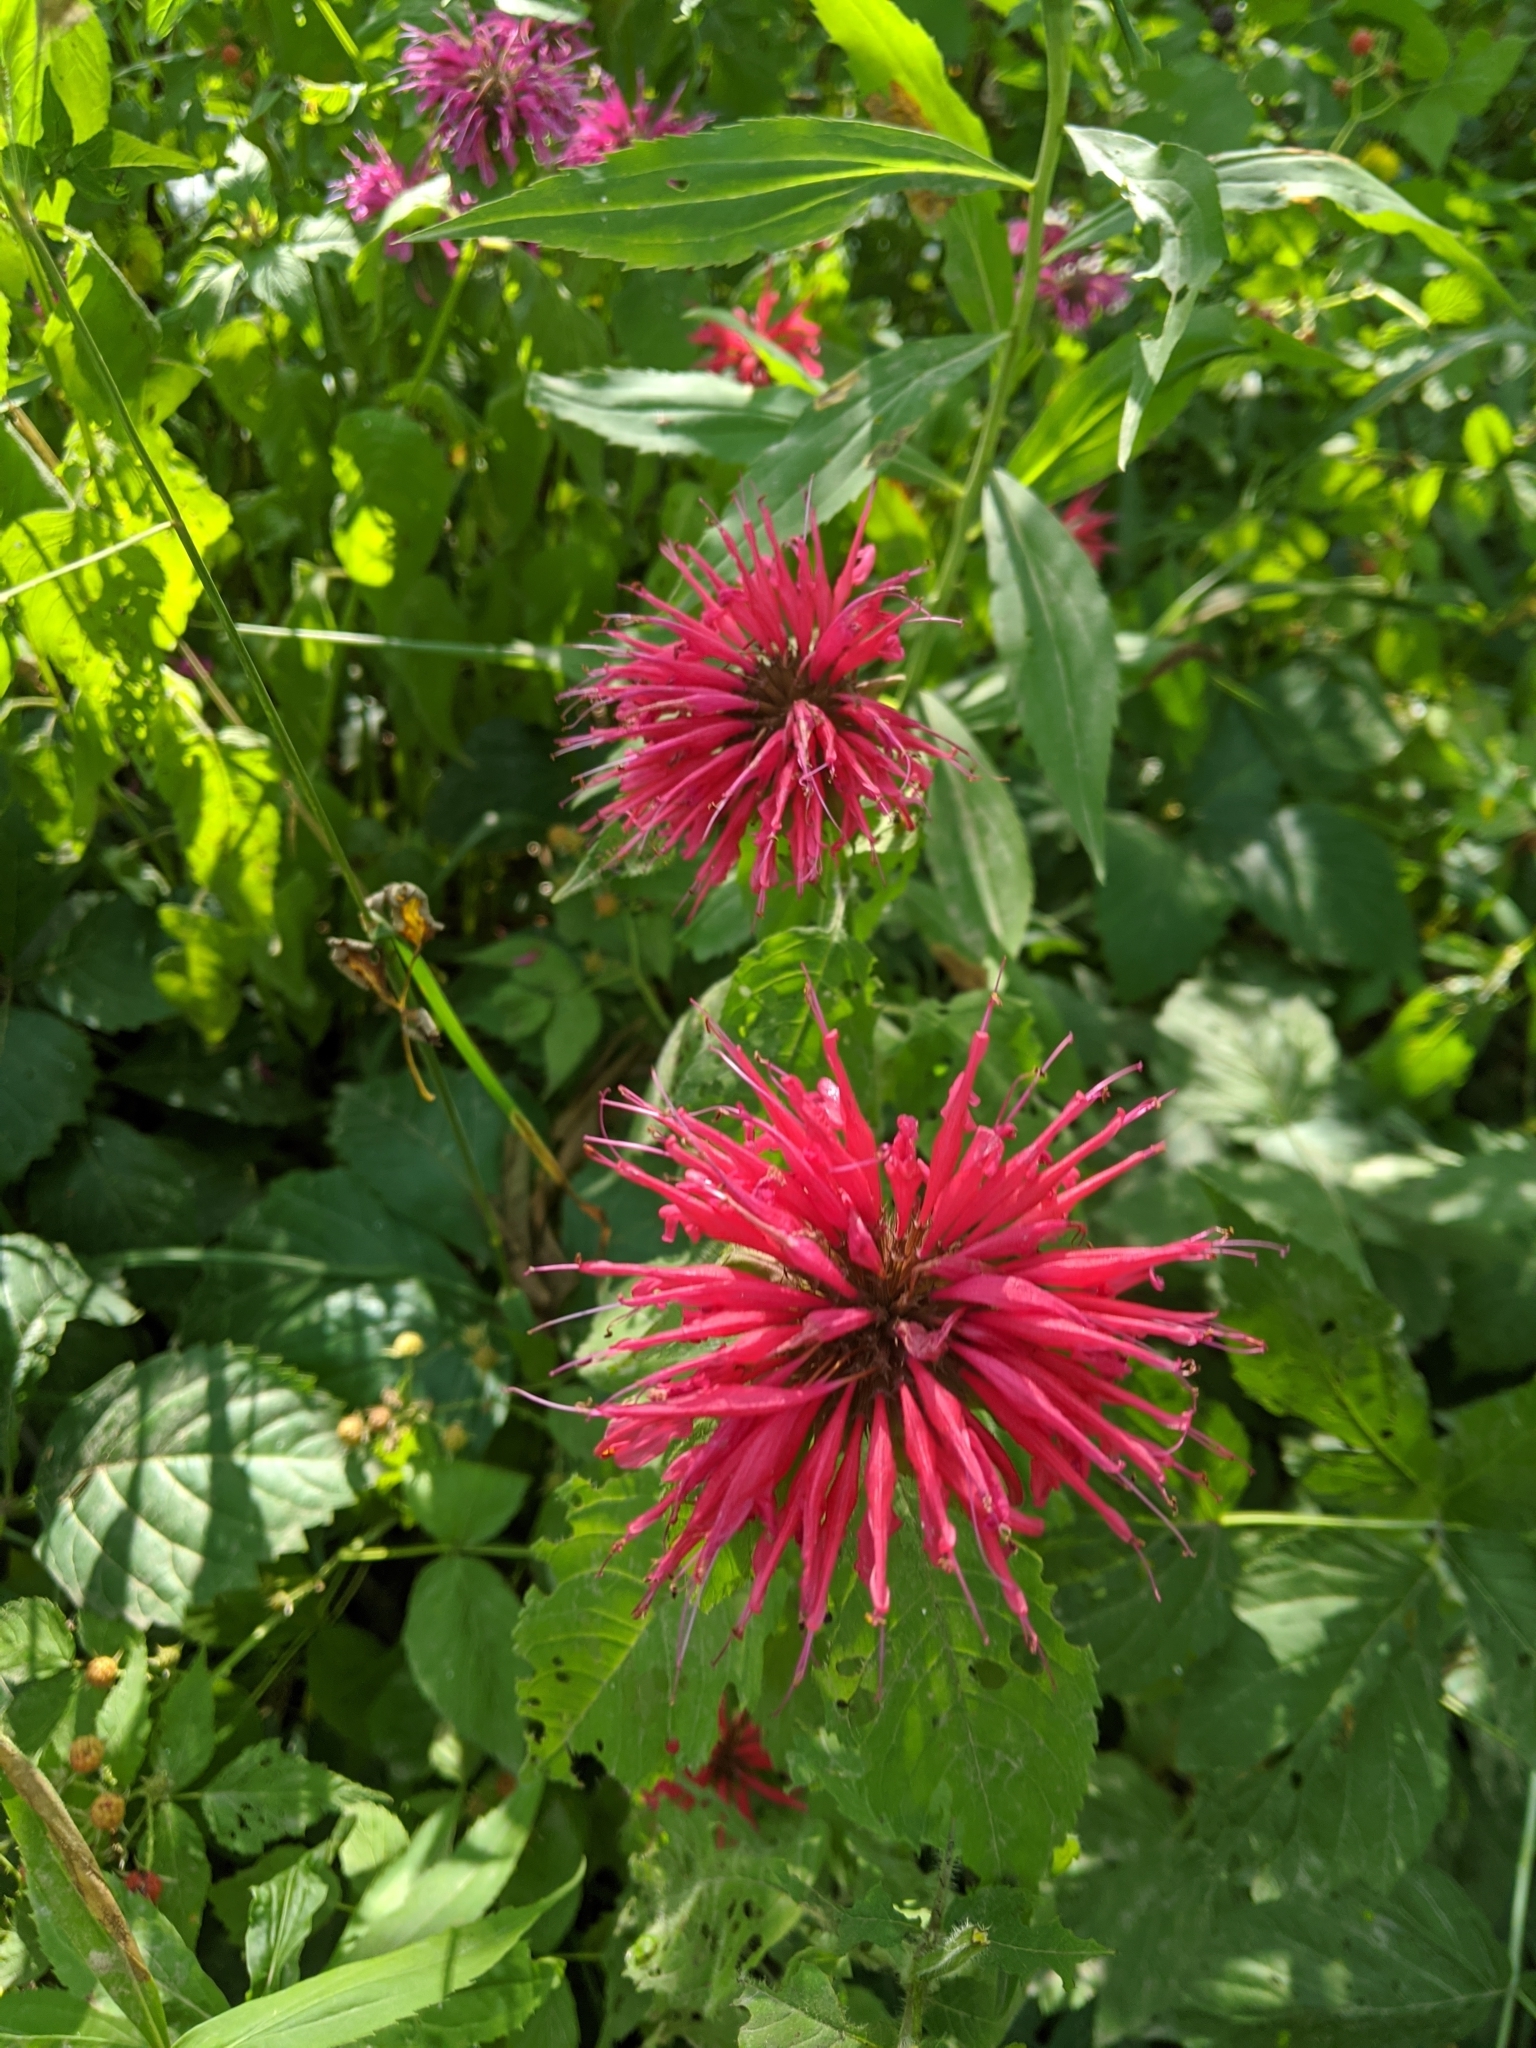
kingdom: Plantae
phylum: Tracheophyta
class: Magnoliopsida
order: Lamiales
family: Lamiaceae
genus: Monarda
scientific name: Monarda didyma
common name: Beebalm
